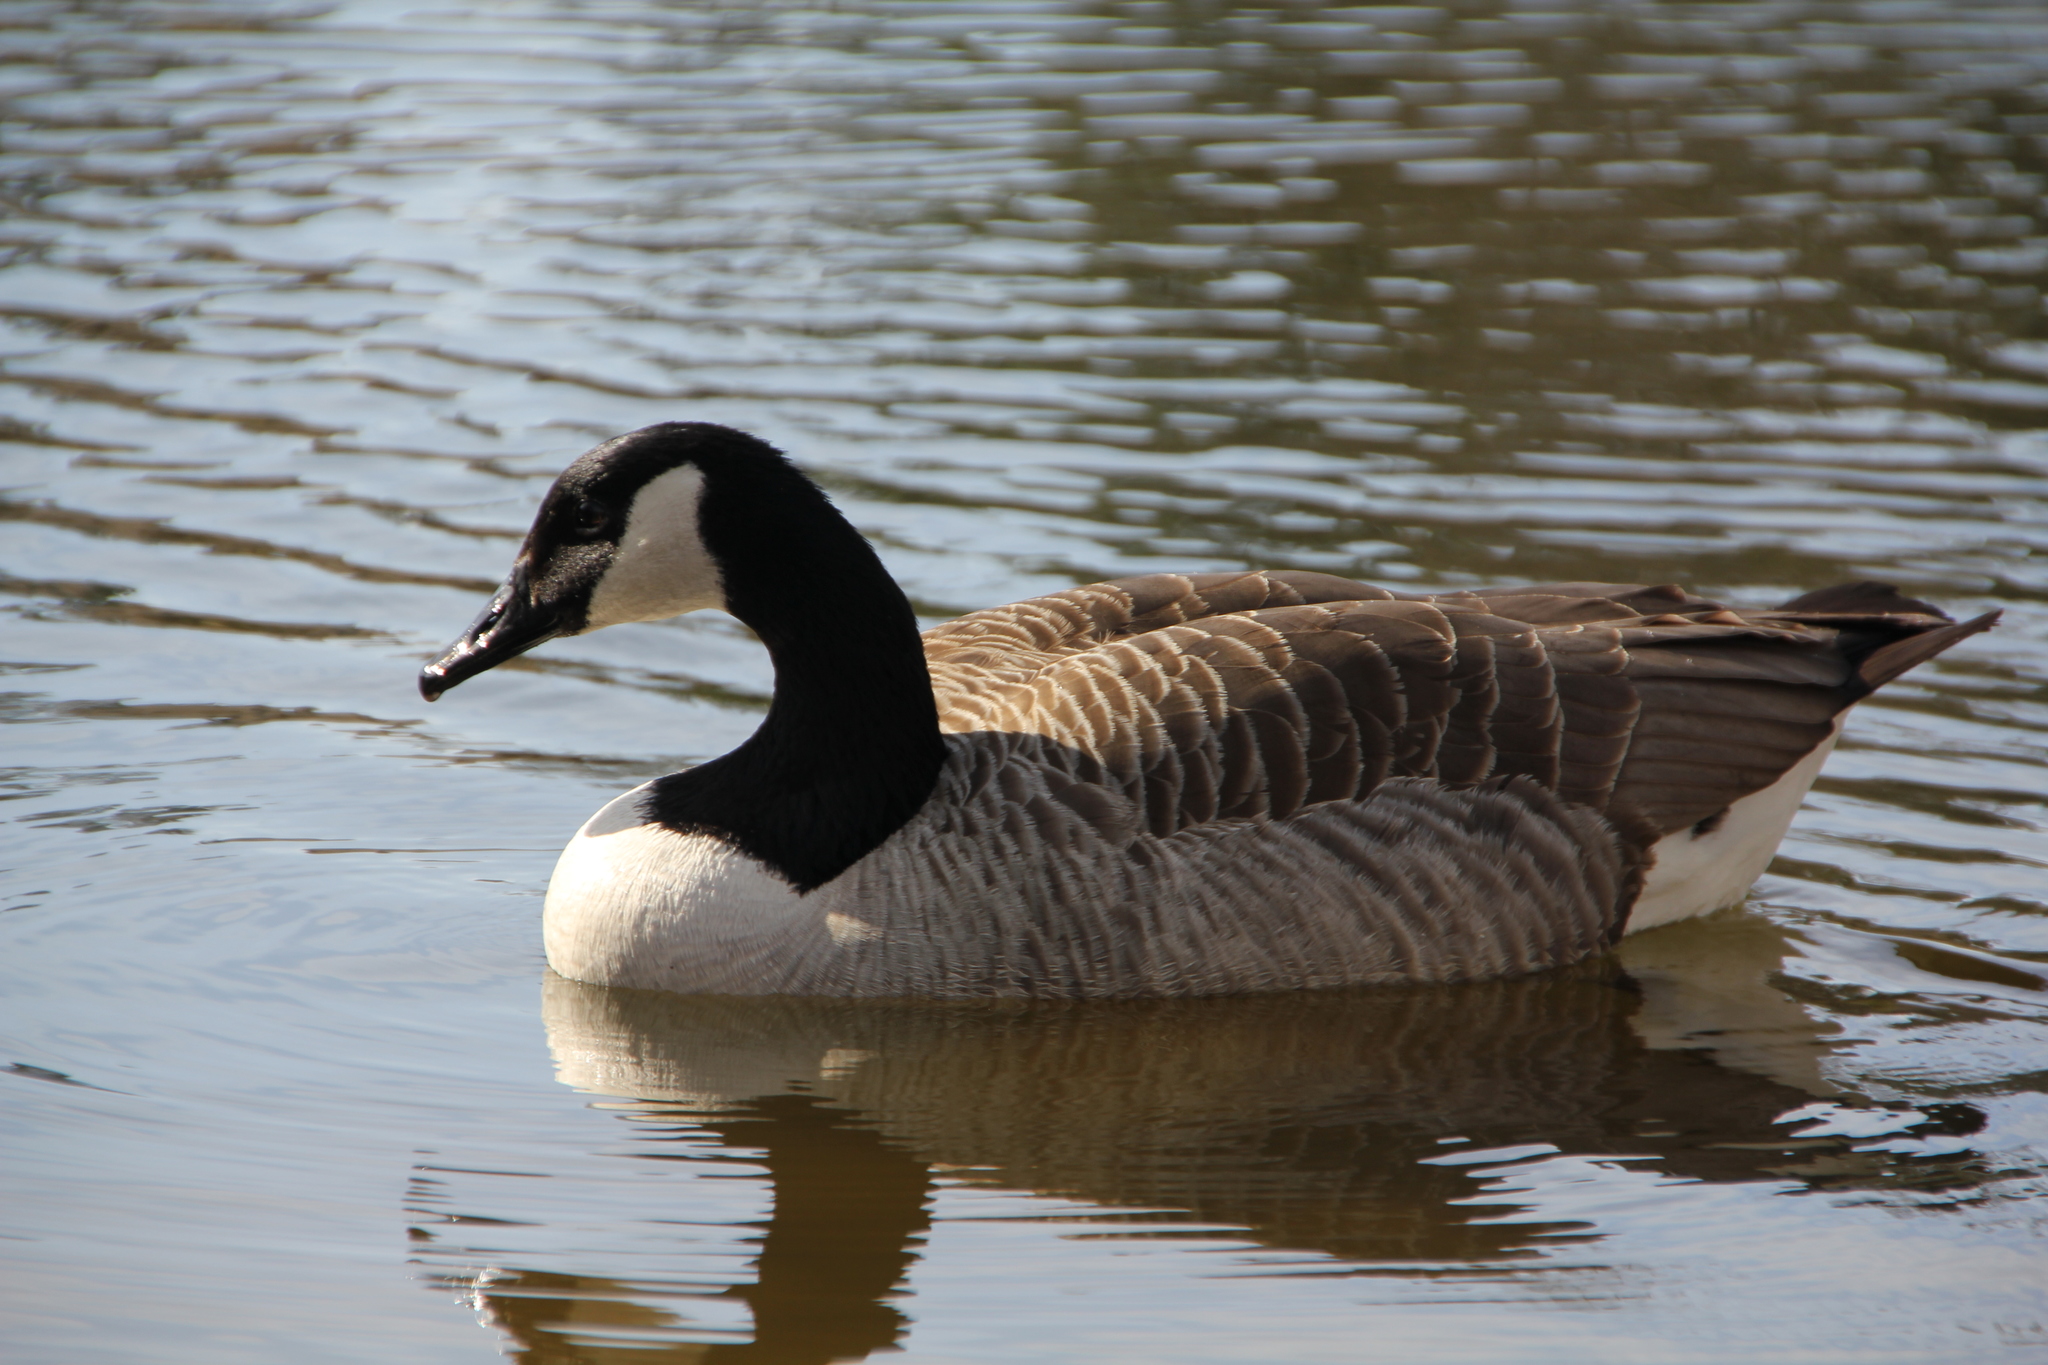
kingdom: Animalia
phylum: Chordata
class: Aves
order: Anseriformes
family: Anatidae
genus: Branta
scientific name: Branta canadensis
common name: Canada goose
